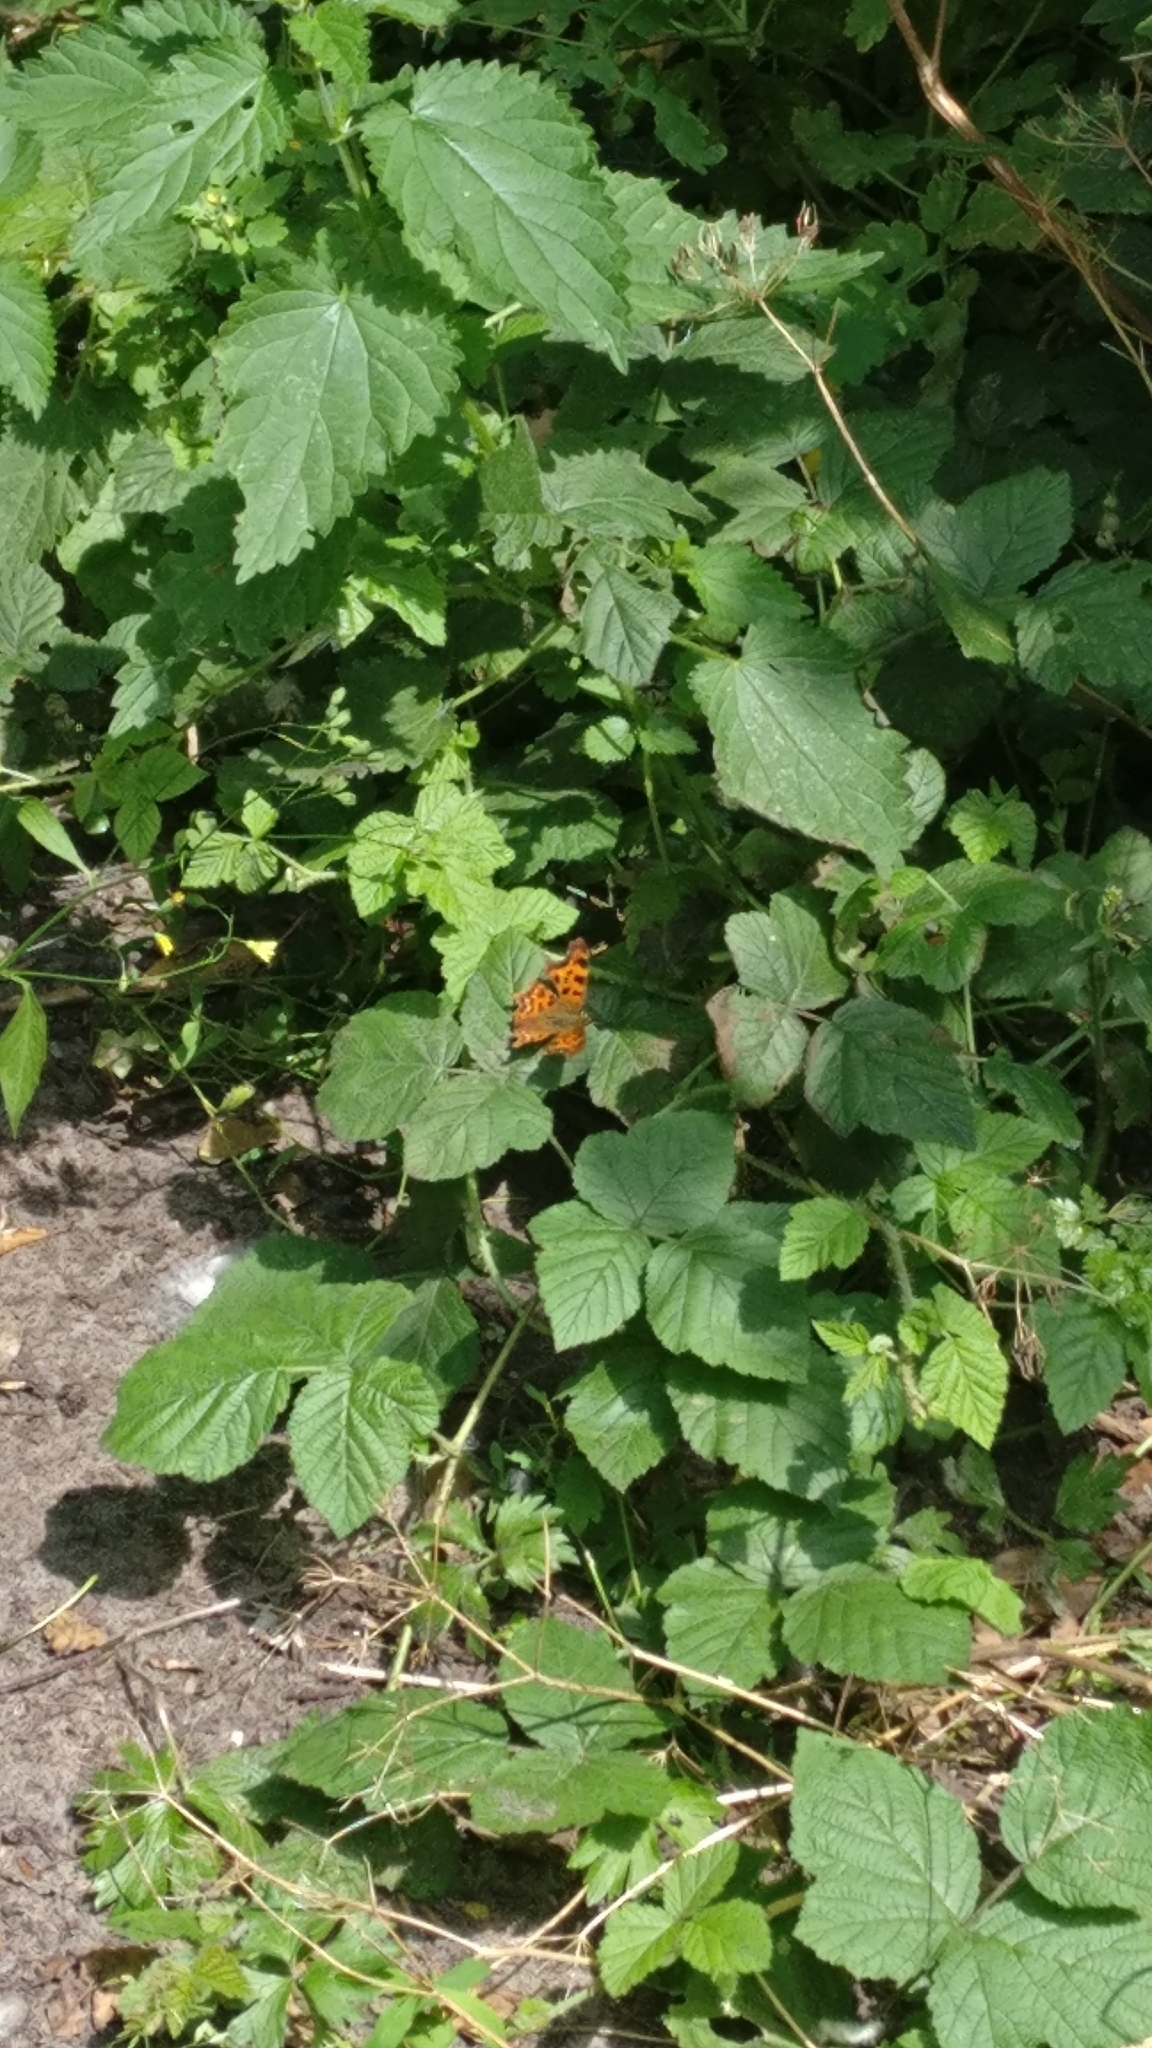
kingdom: Animalia
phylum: Arthropoda
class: Insecta
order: Lepidoptera
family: Nymphalidae
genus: Polygonia
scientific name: Polygonia c-album
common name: Comma
